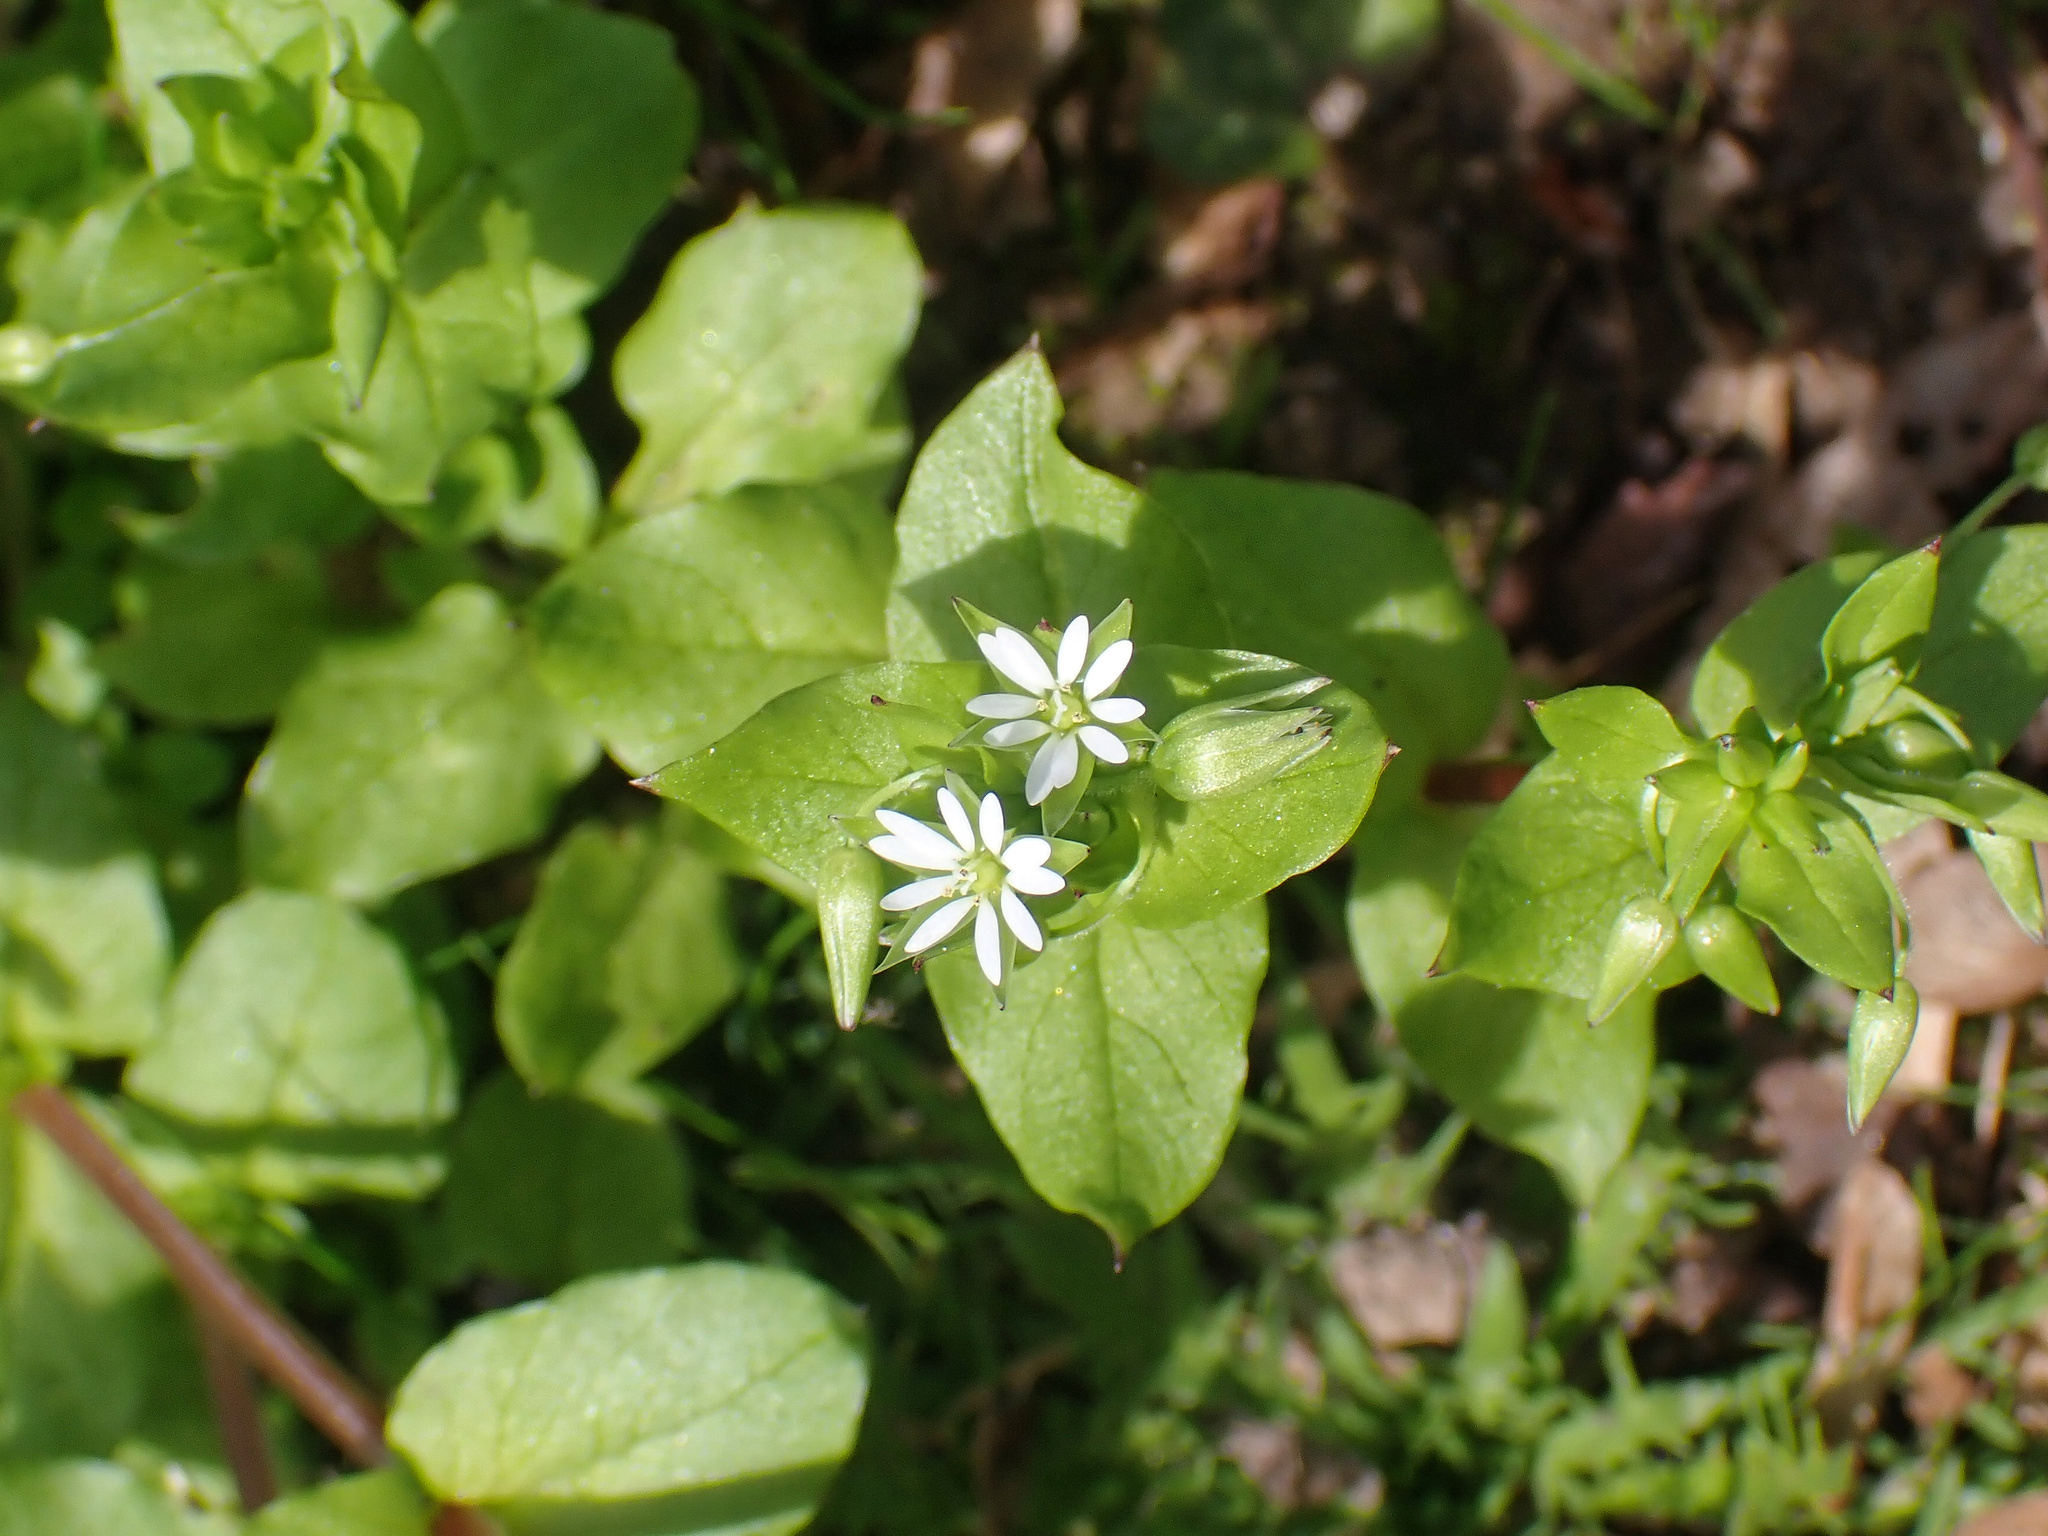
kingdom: Plantae
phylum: Tracheophyta
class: Magnoliopsida
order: Caryophyllales
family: Caryophyllaceae
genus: Stellaria
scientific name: Stellaria media
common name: Common chickweed
